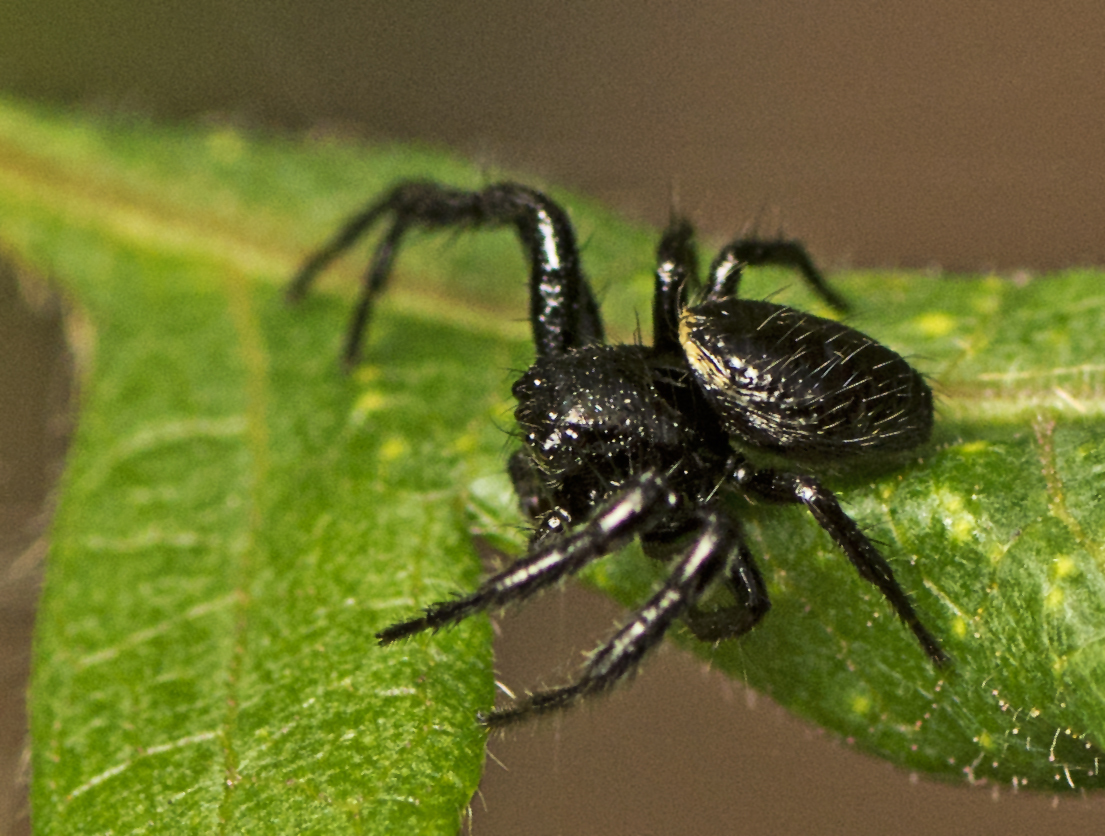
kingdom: Animalia
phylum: Arthropoda
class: Arachnida
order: Araneae
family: Thomisidae
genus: Xysticus
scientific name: Xysticus bimaculatus
